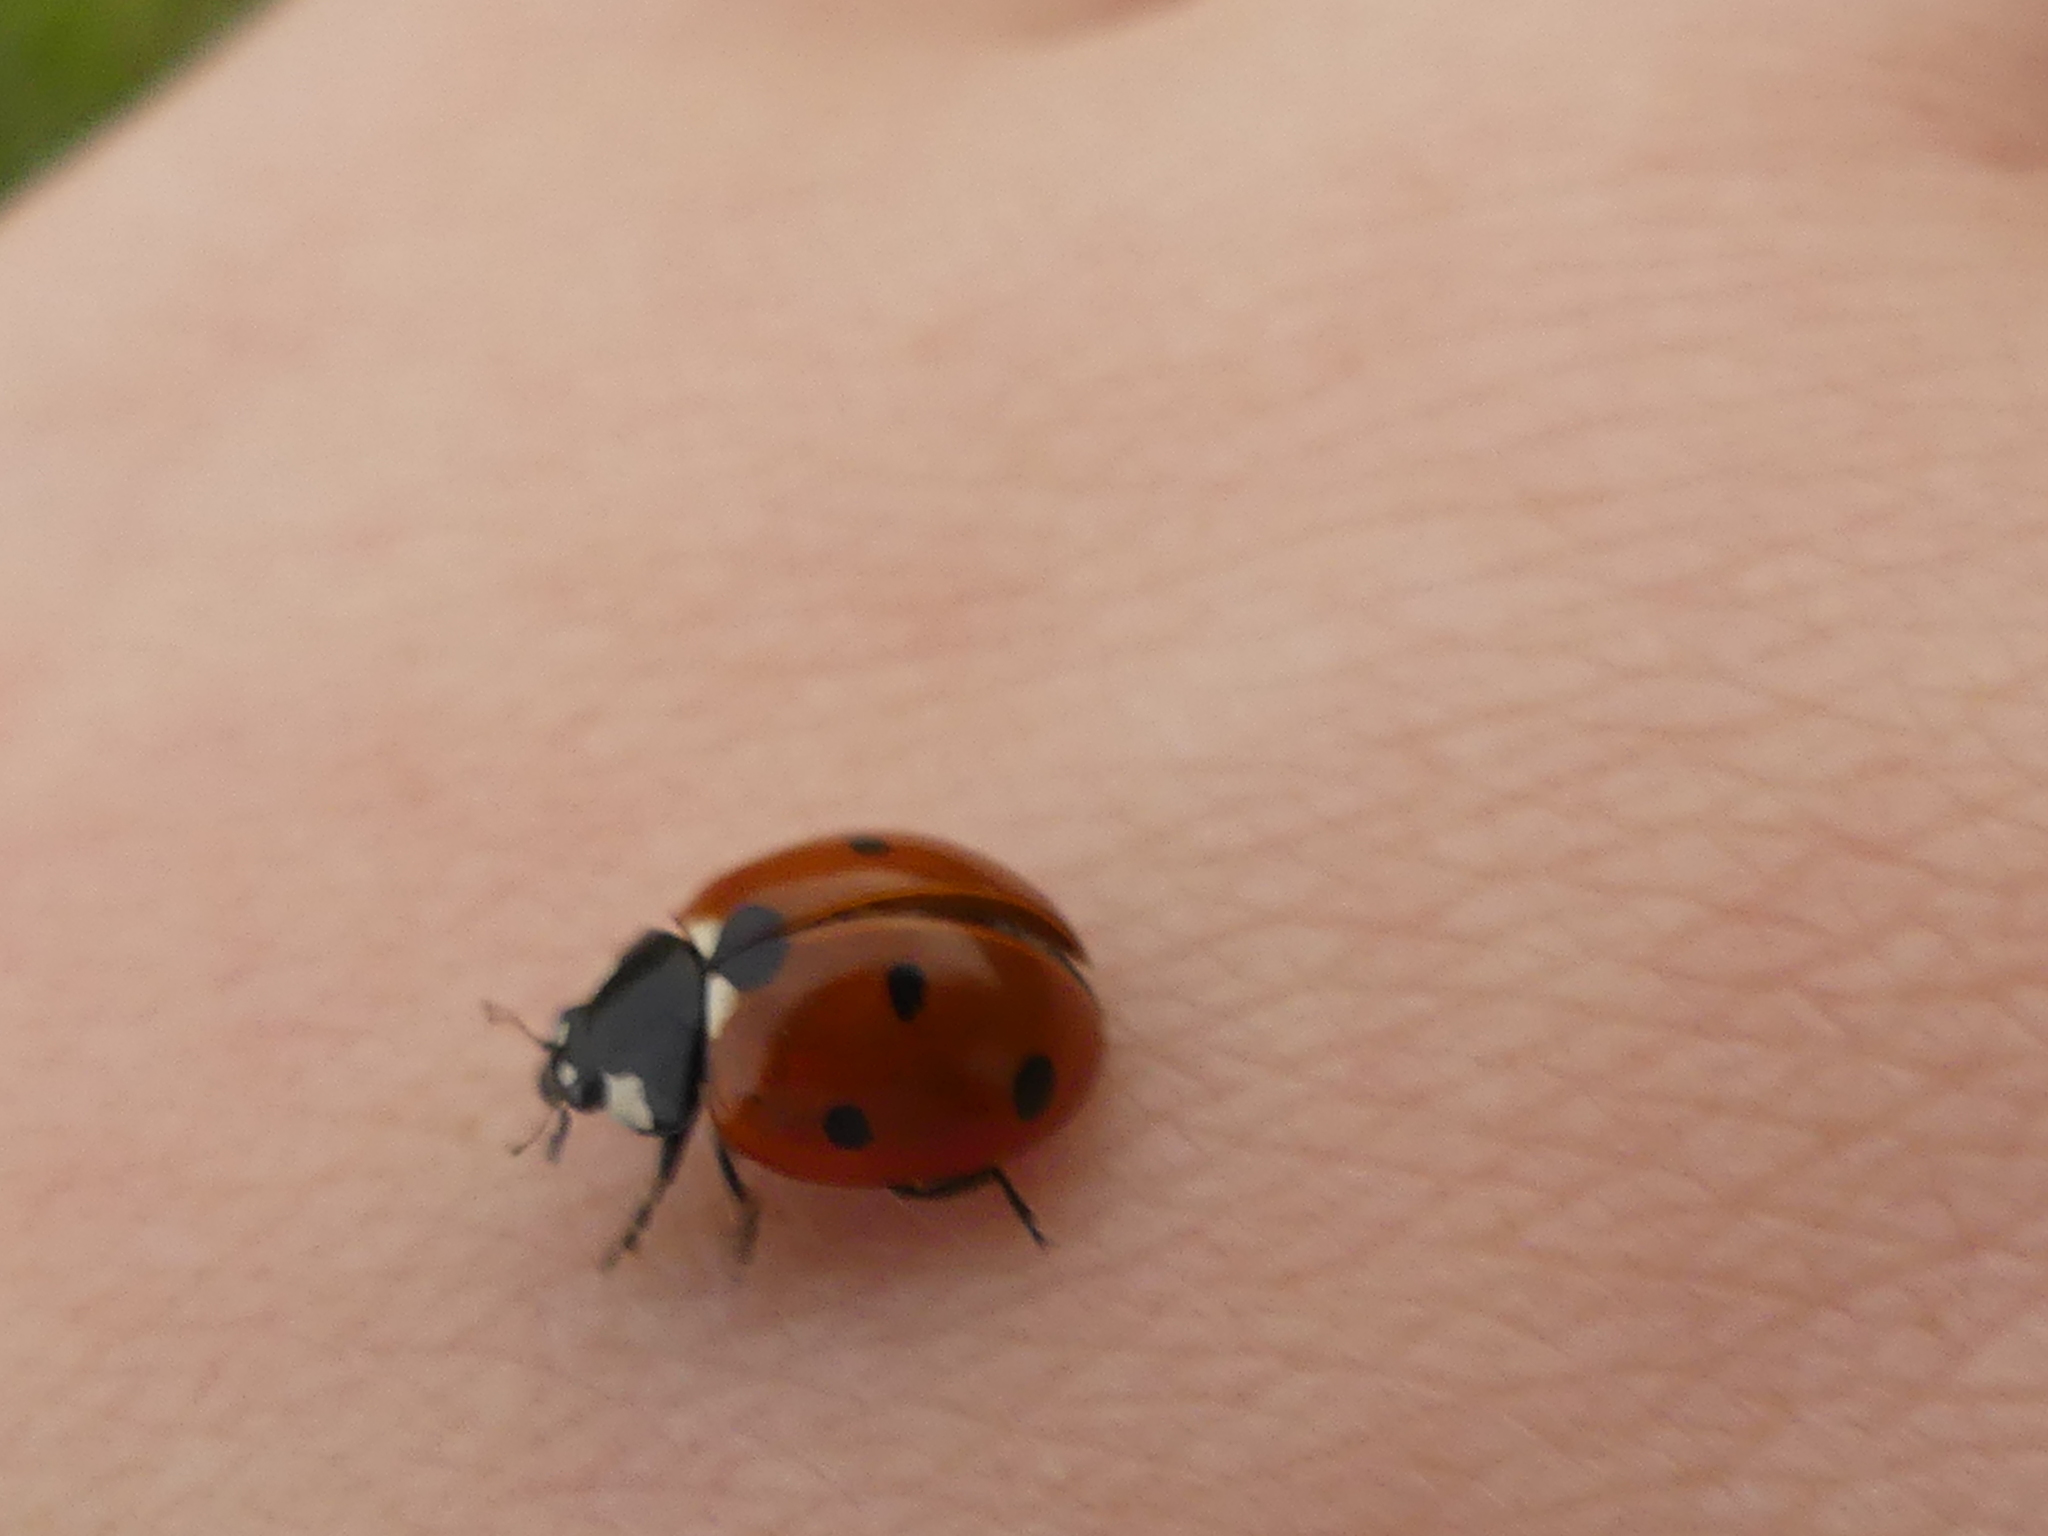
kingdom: Animalia
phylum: Arthropoda
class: Insecta
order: Coleoptera
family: Coccinellidae
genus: Coccinella
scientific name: Coccinella septempunctata
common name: Sevenspotted lady beetle
